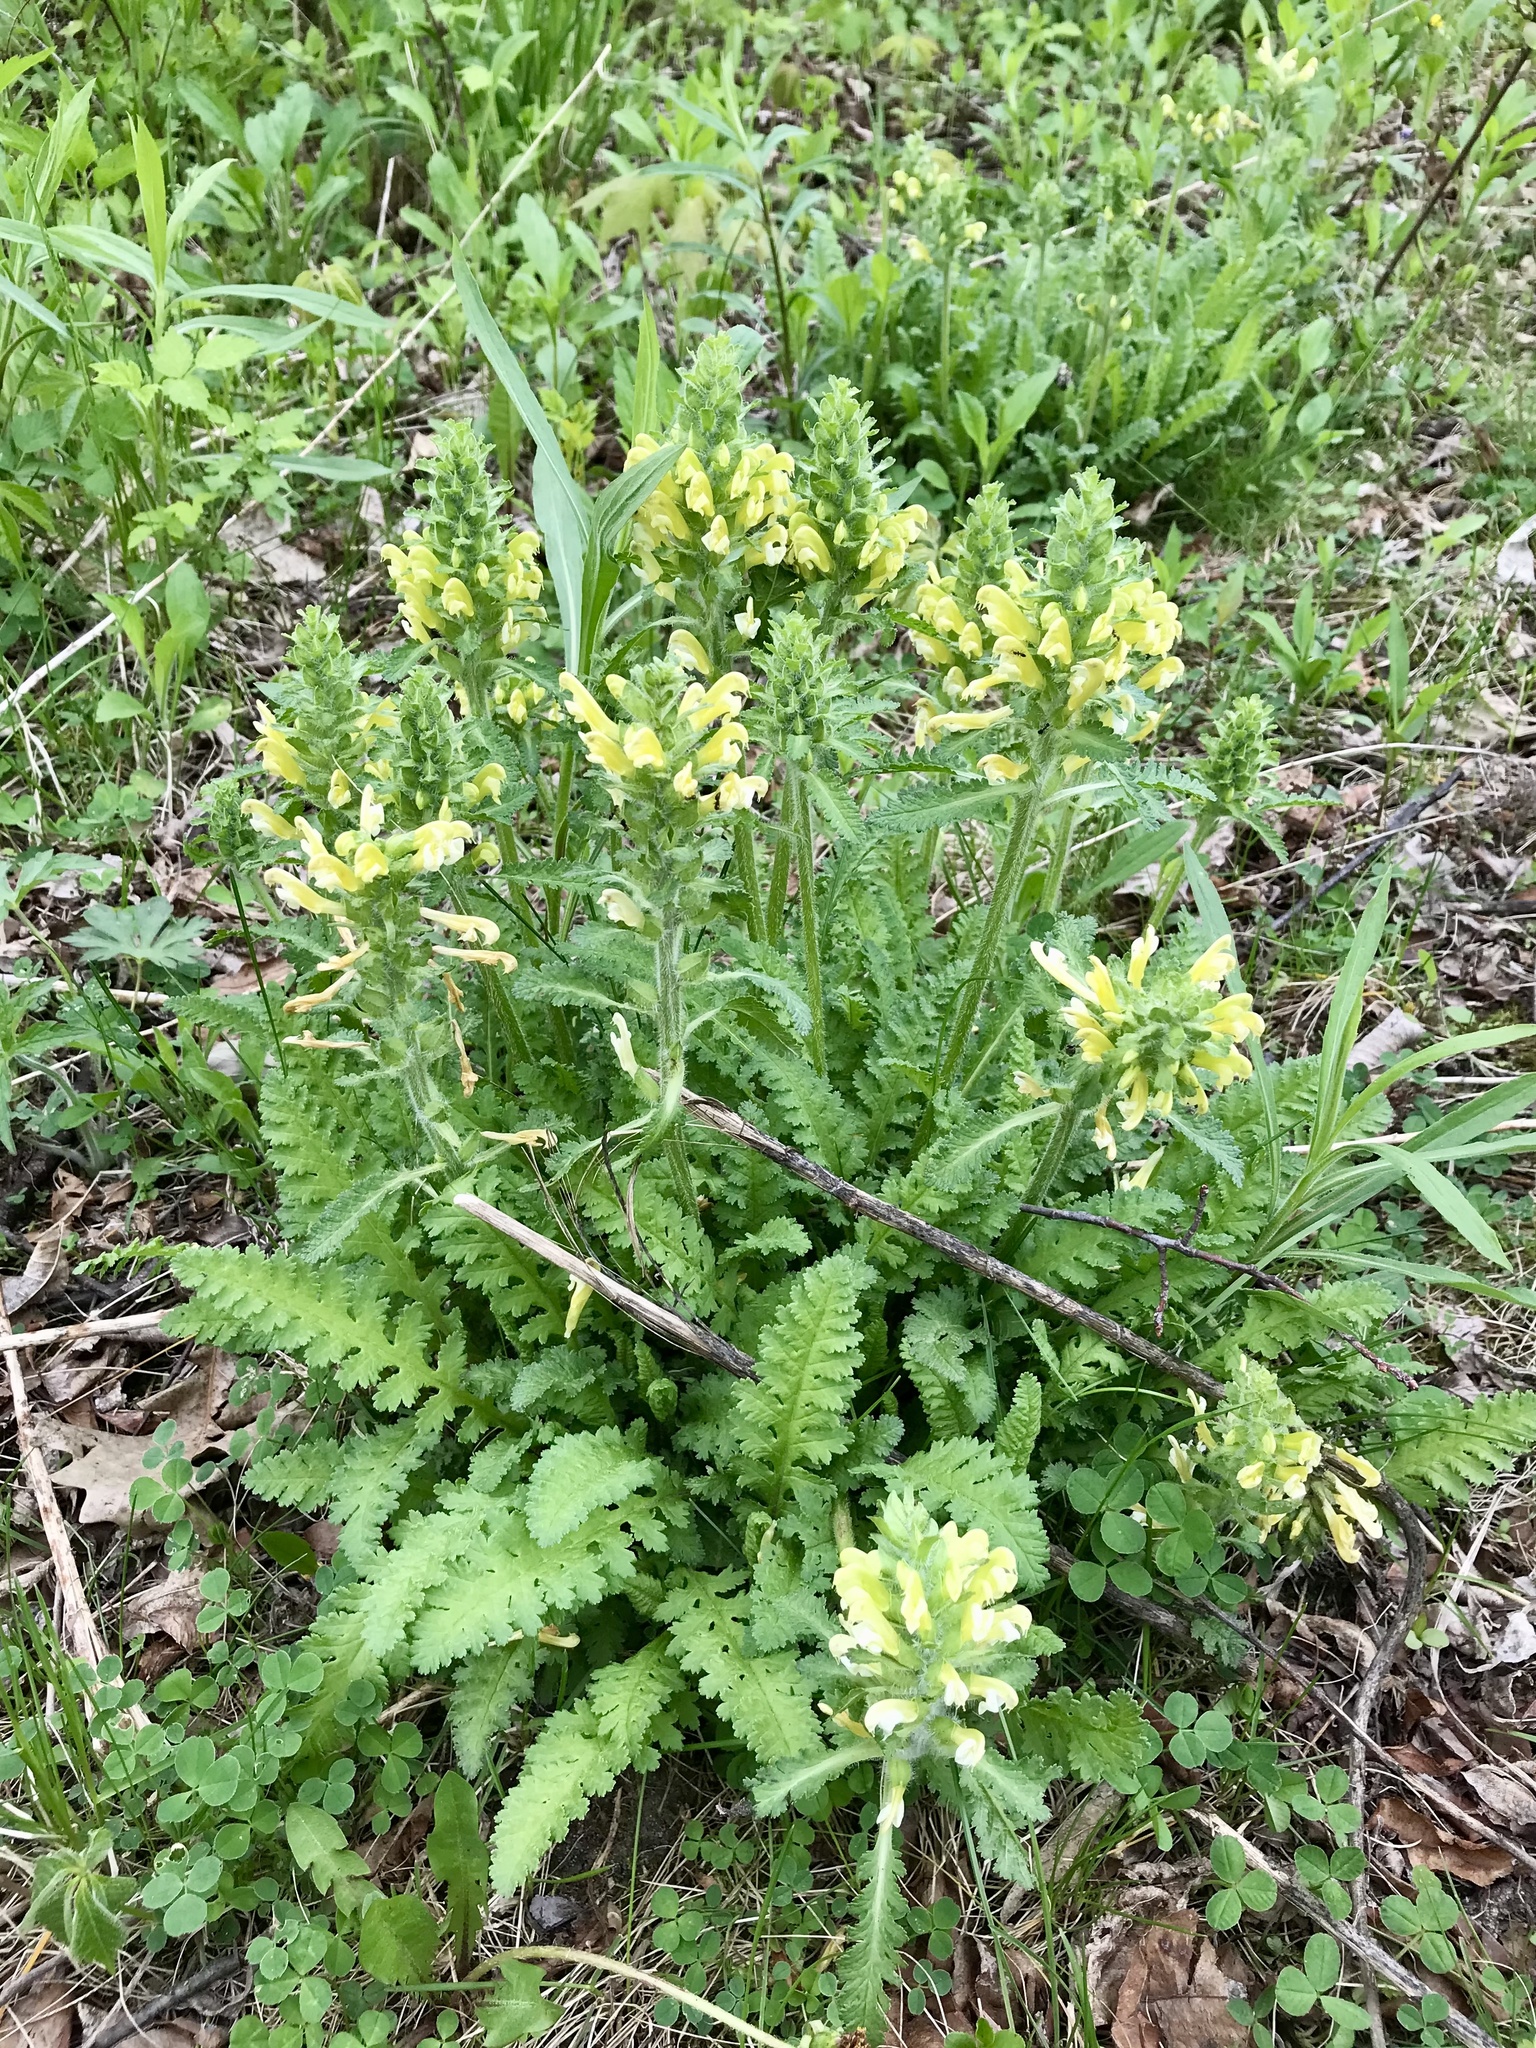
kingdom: Plantae
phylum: Tracheophyta
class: Magnoliopsida
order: Lamiales
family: Orobanchaceae
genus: Pedicularis
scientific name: Pedicularis canadensis
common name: Early lousewort
